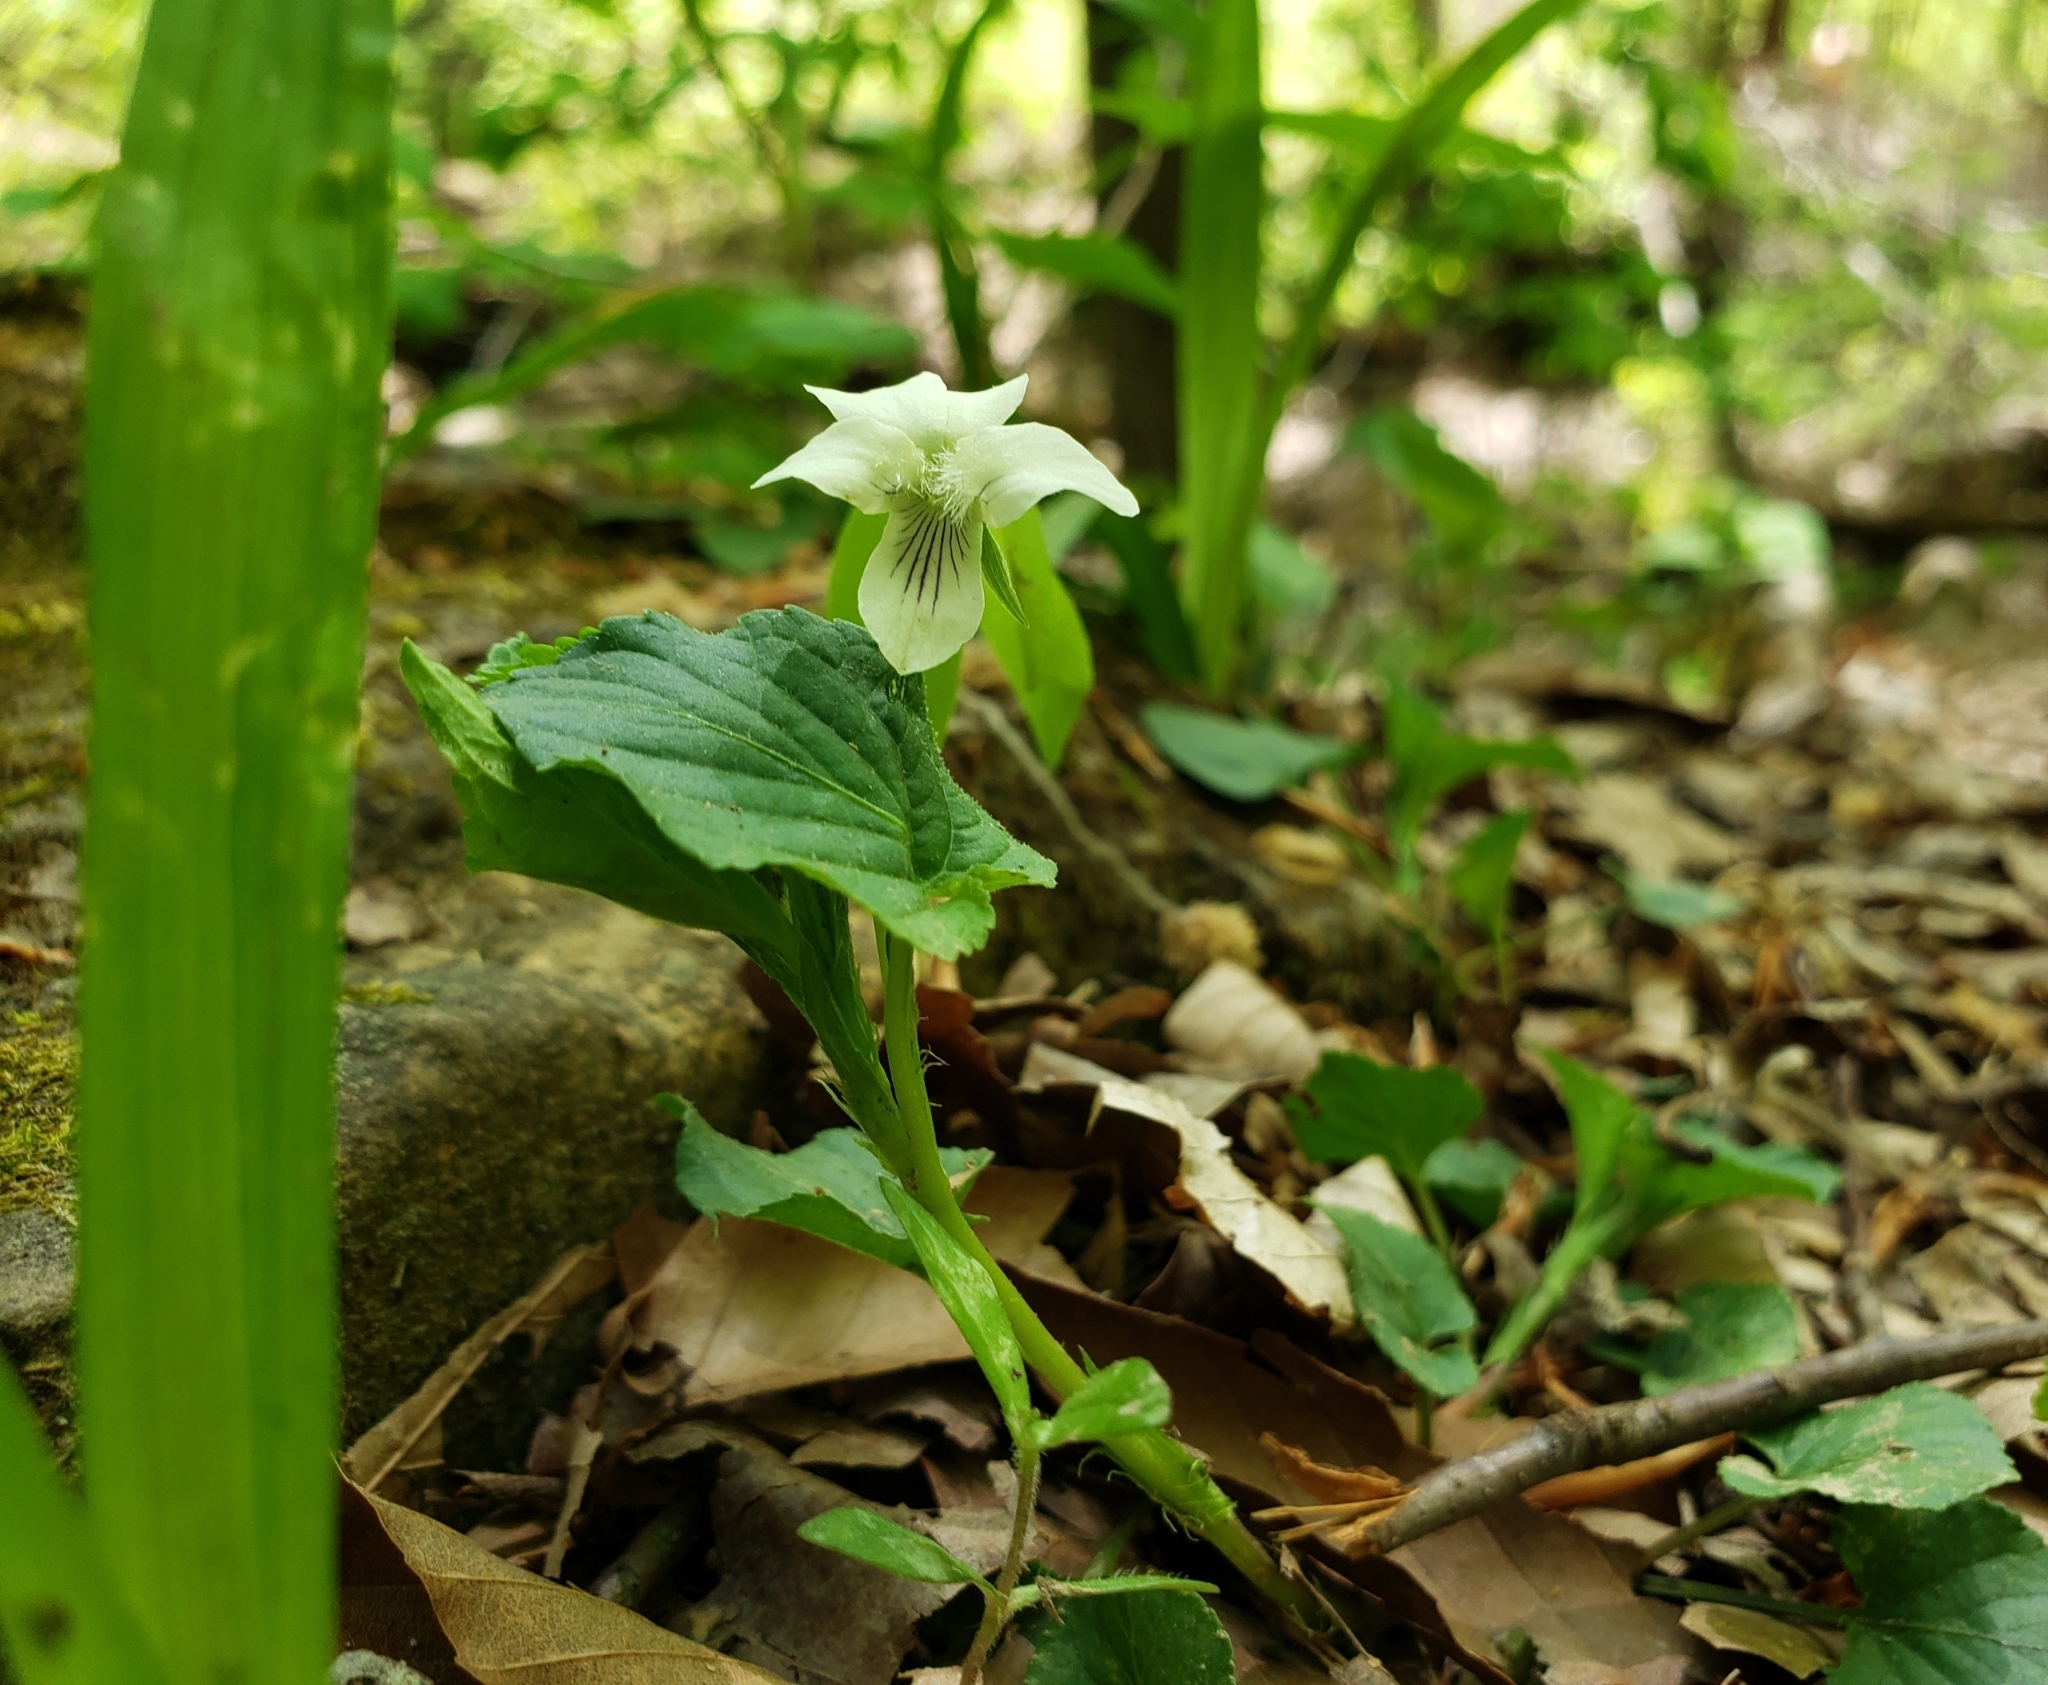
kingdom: Plantae
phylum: Tracheophyta
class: Magnoliopsida
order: Malpighiales
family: Violaceae
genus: Viola
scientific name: Viola striata
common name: Cream violet
